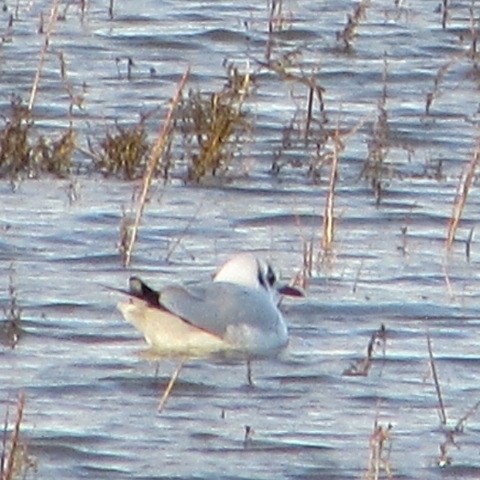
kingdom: Animalia
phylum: Chordata
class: Aves
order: Charadriiformes
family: Laridae
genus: Chroicocephalus
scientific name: Chroicocephalus ridibundus
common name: Black-headed gull
